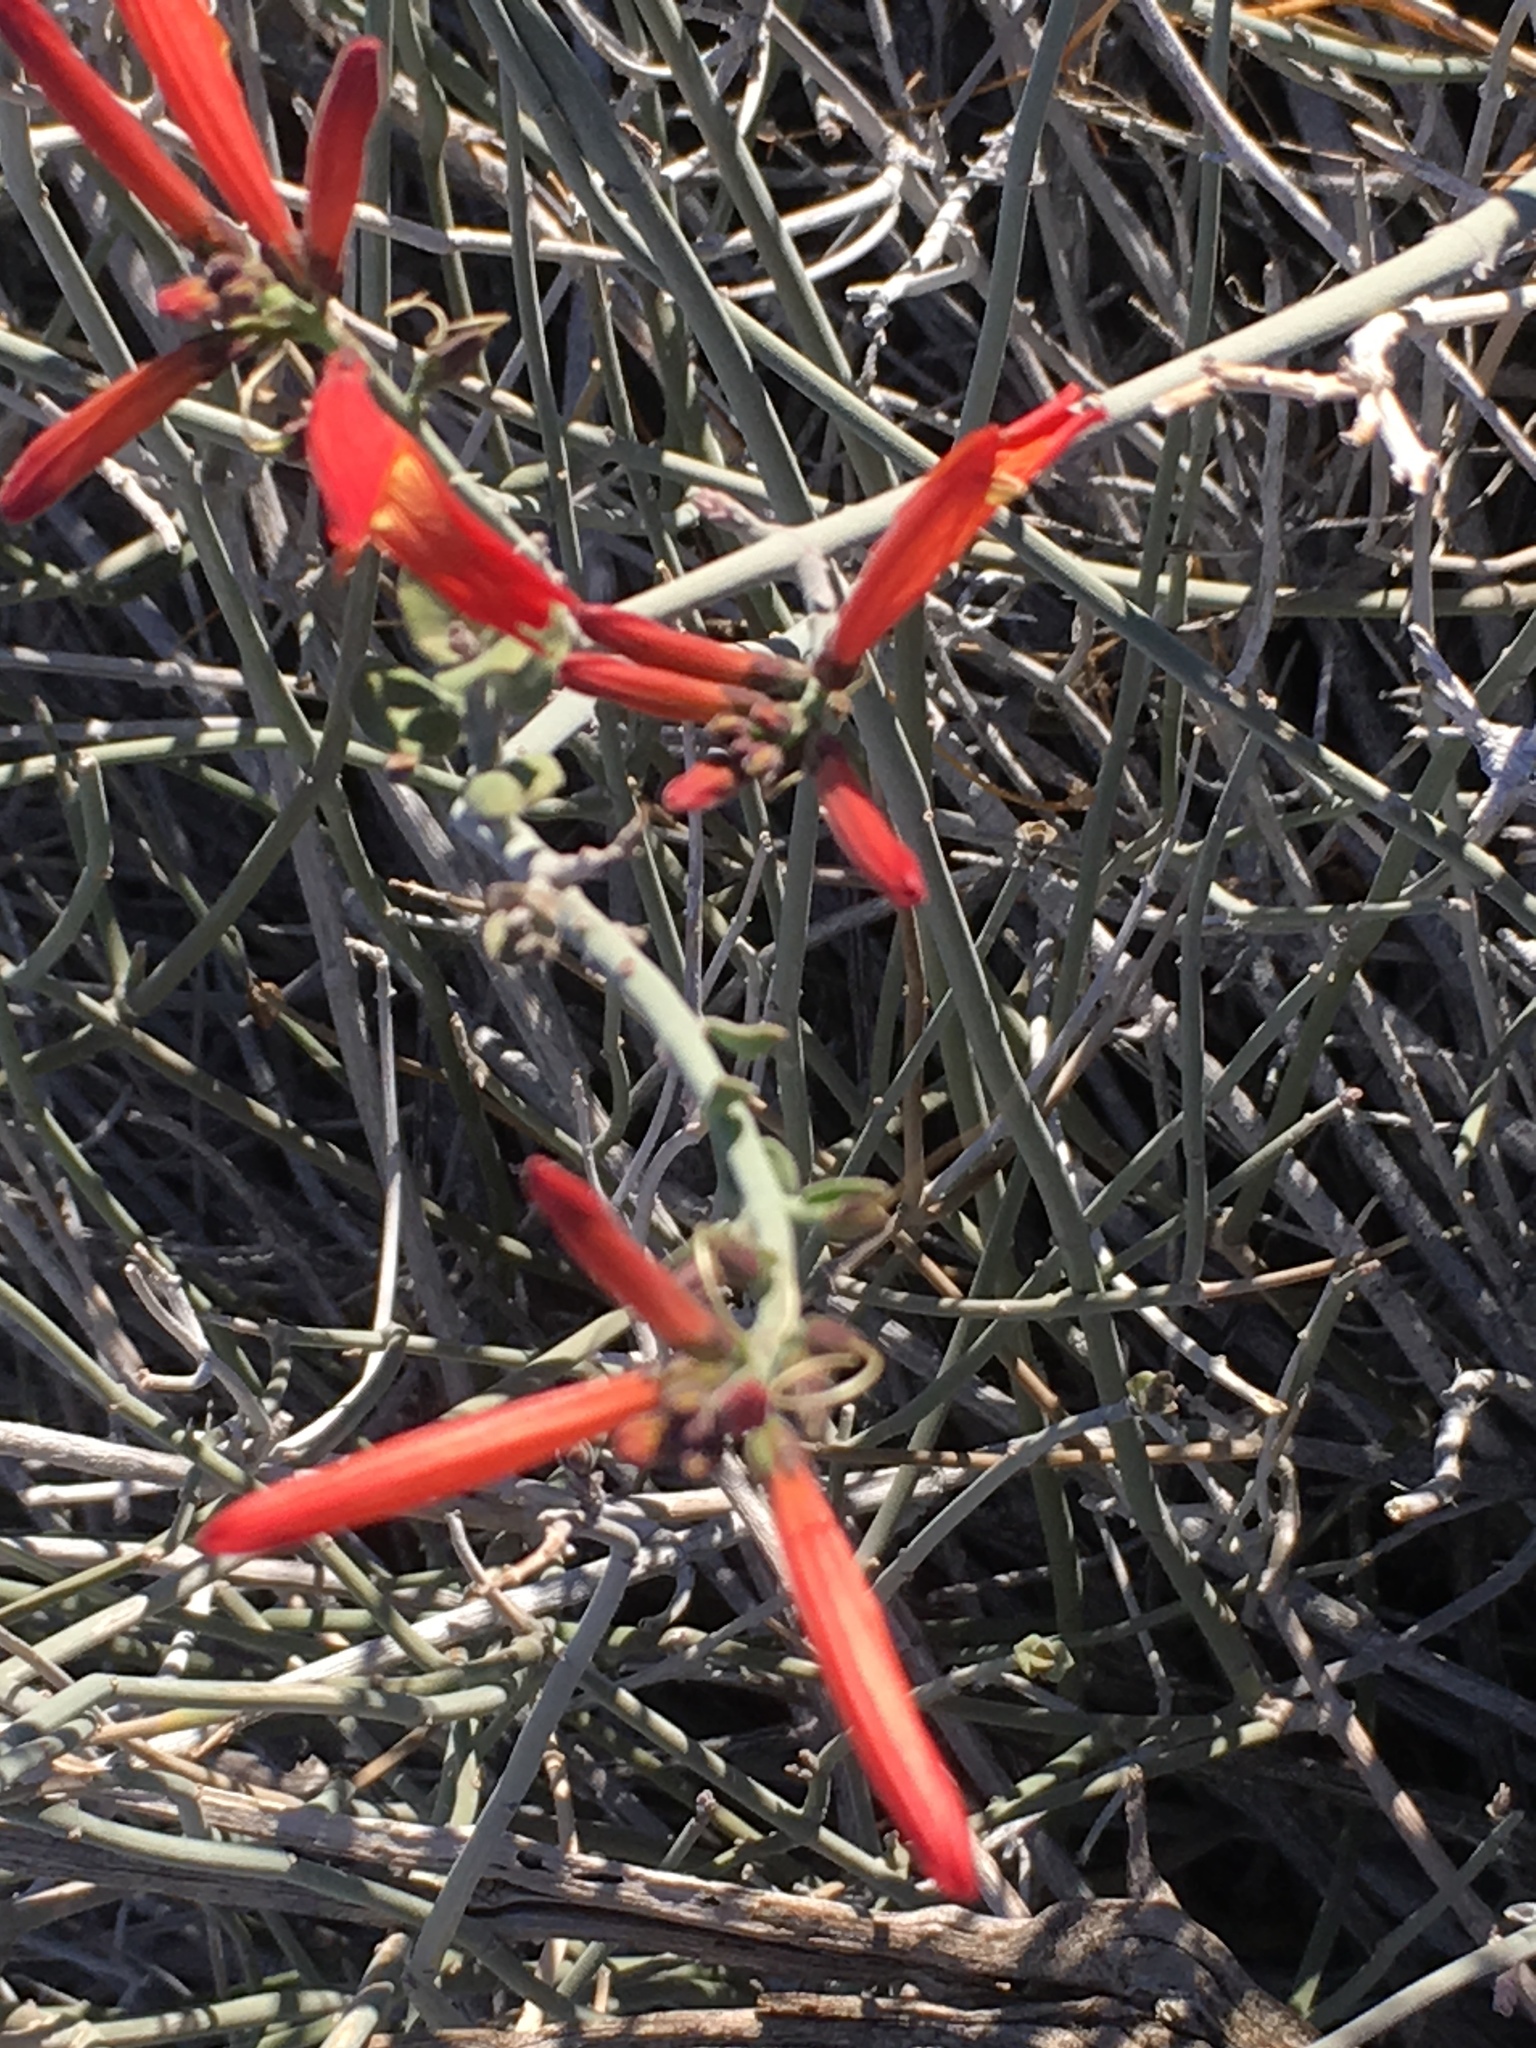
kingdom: Plantae
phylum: Tracheophyta
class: Magnoliopsida
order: Lamiales
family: Acanthaceae
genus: Justicia
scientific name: Justicia californica
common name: Chuparosa-honeysuckle
